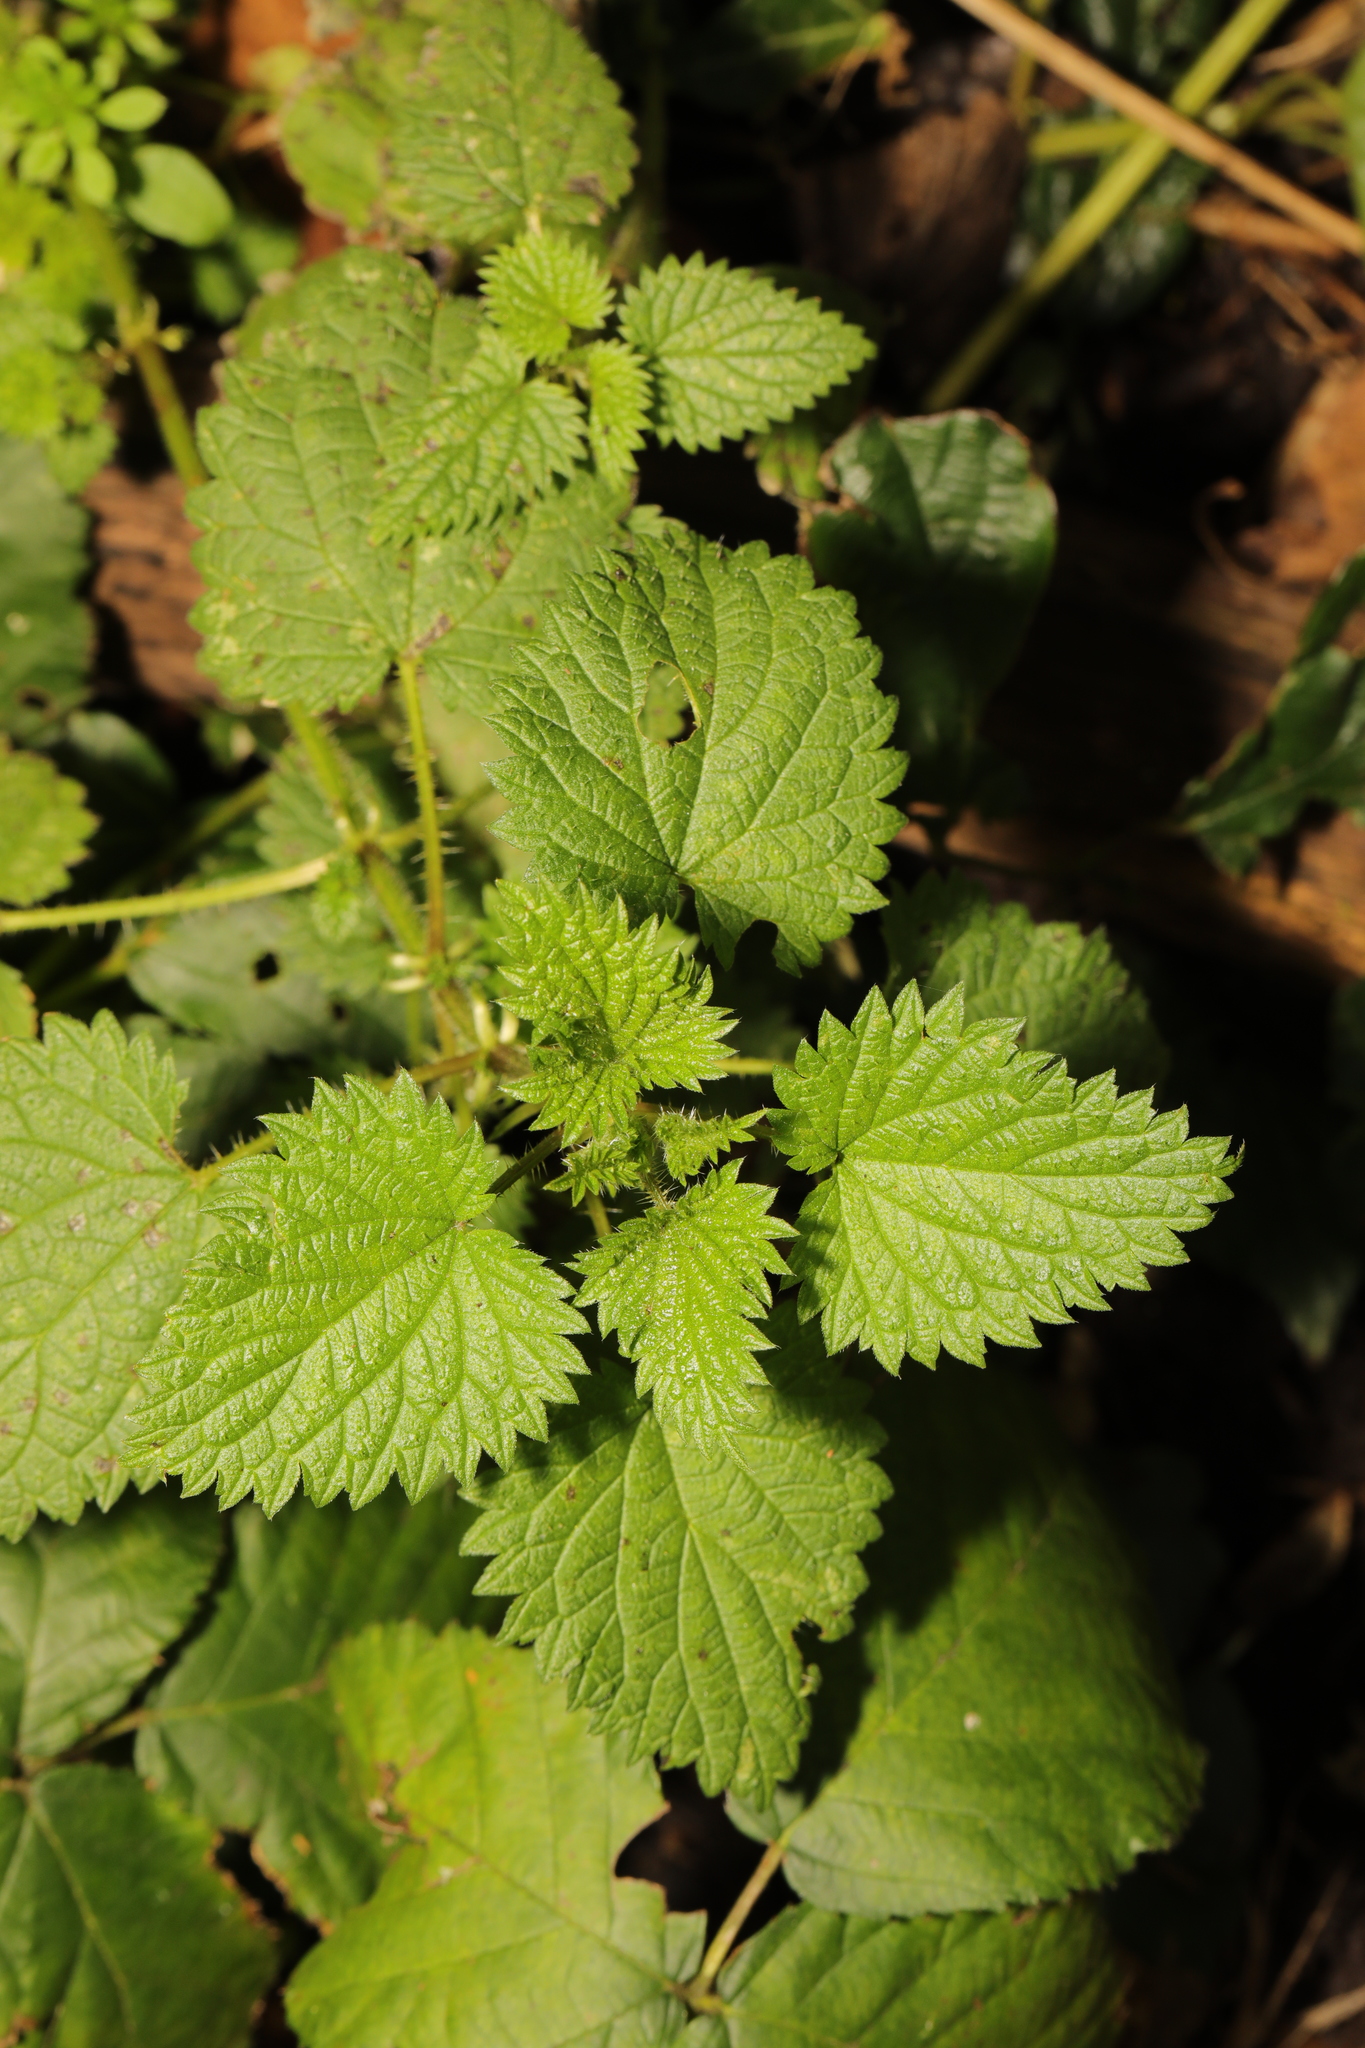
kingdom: Plantae
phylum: Tracheophyta
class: Magnoliopsida
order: Rosales
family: Urticaceae
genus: Urtica
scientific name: Urtica dioica
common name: Common nettle
